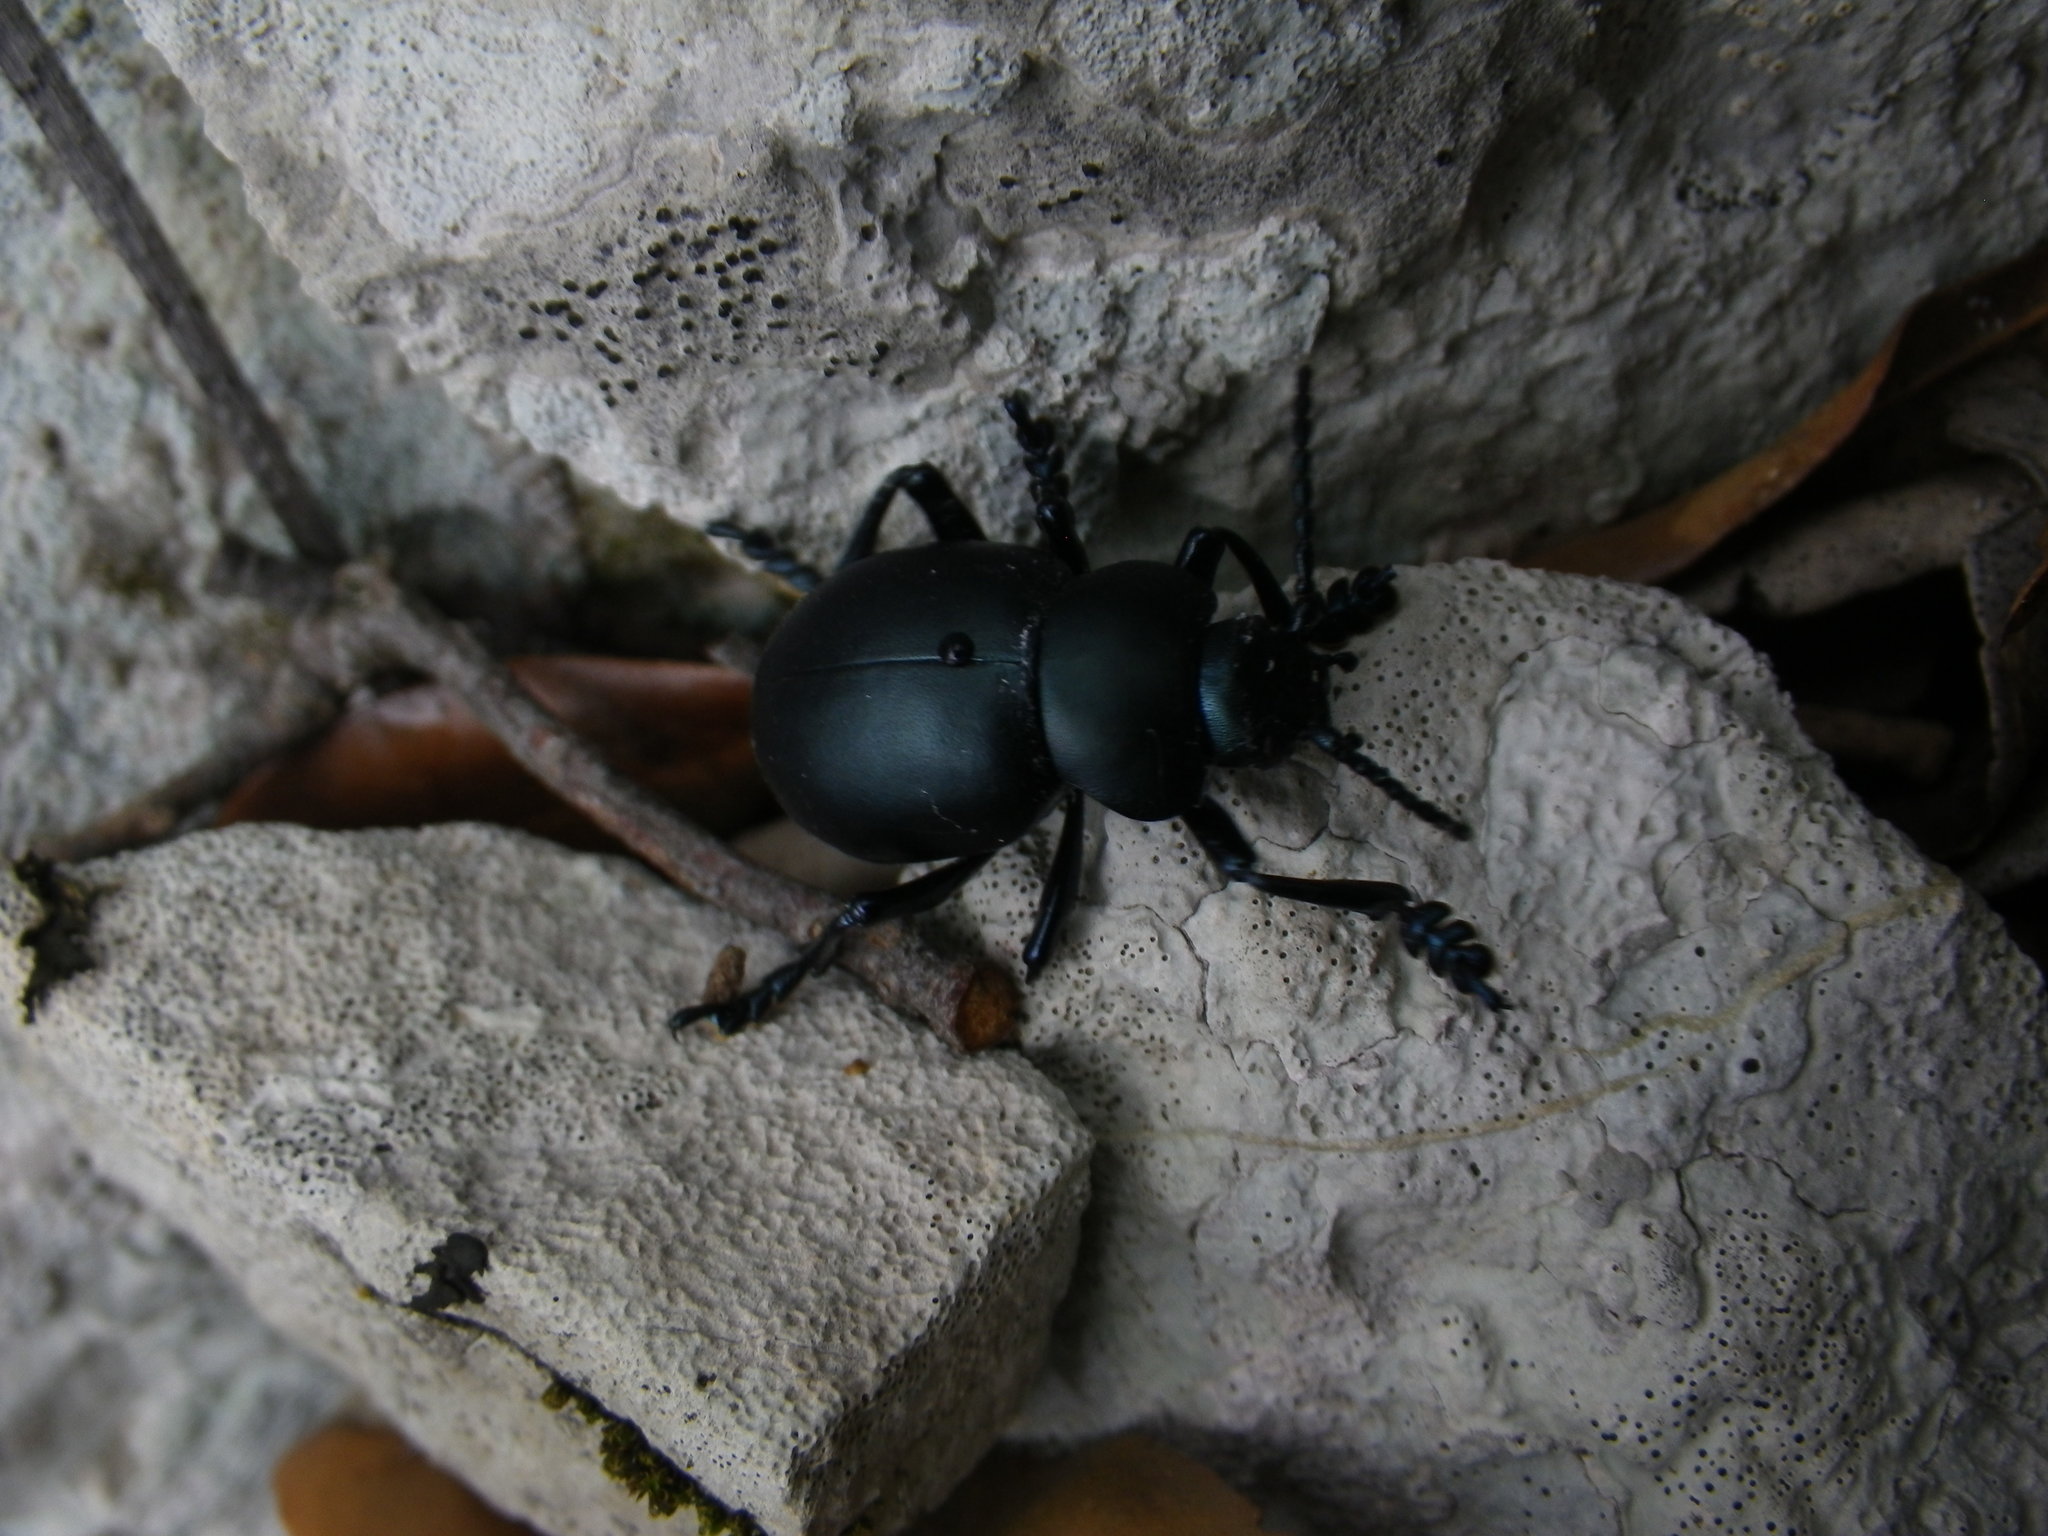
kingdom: Animalia
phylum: Arthropoda
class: Insecta
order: Coleoptera
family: Chrysomelidae
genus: Timarcha
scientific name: Timarcha tenebricosa
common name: Bloody-nosed beetle
